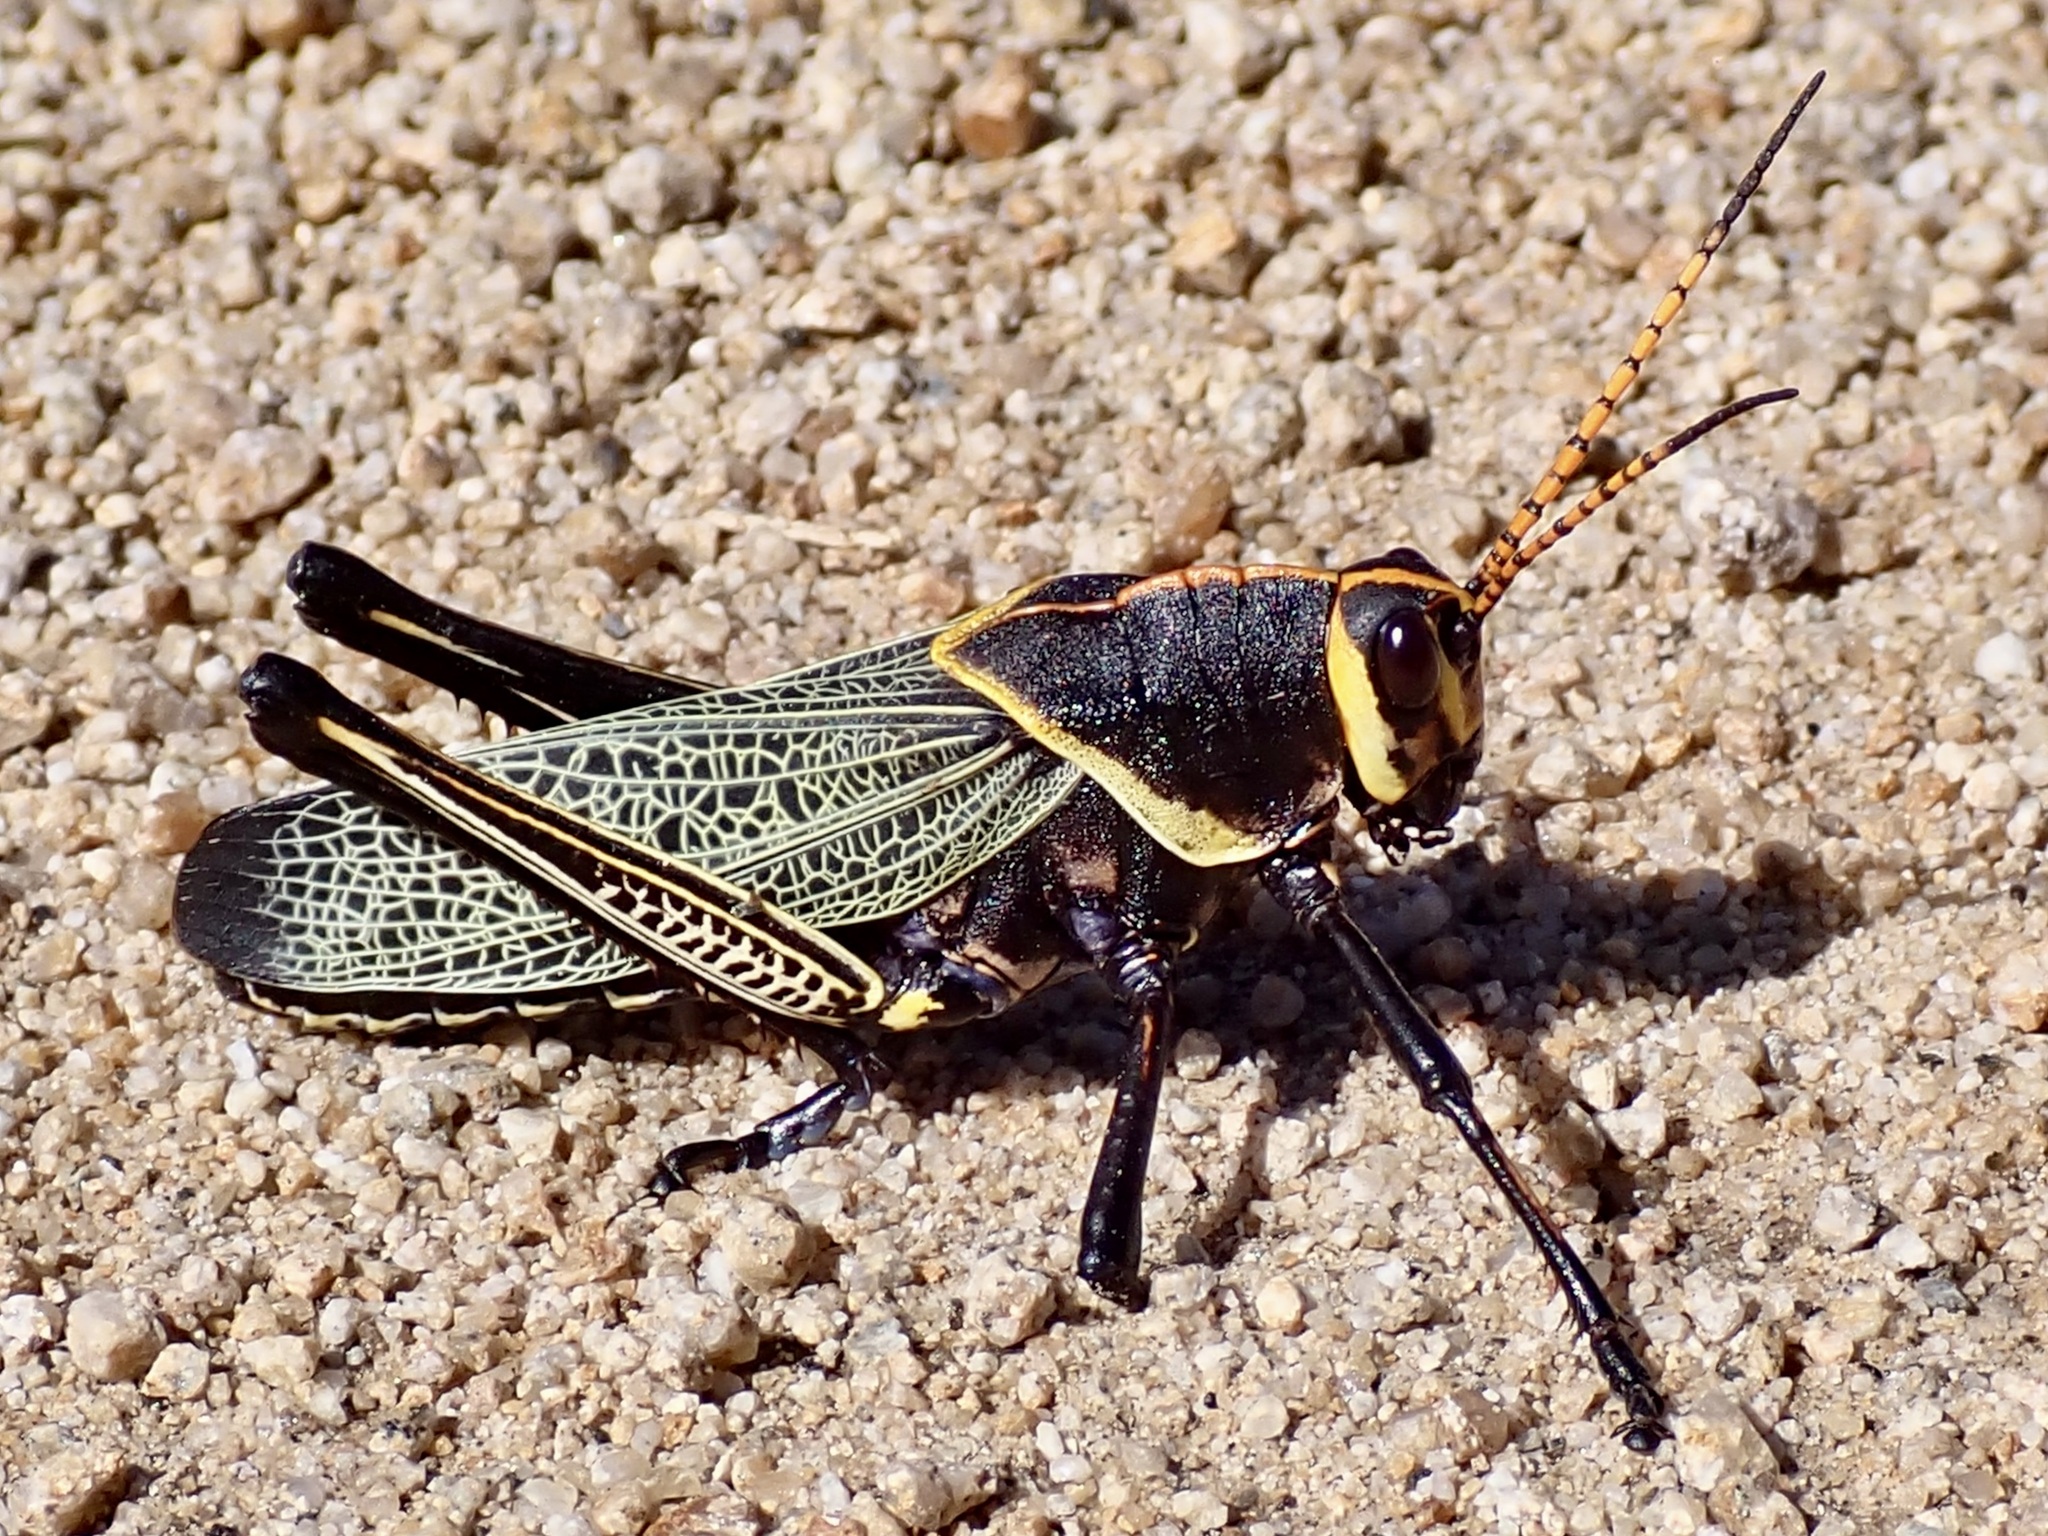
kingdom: Animalia
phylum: Arthropoda
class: Insecta
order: Orthoptera
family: Romaleidae
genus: Romalea
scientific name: Romalea
